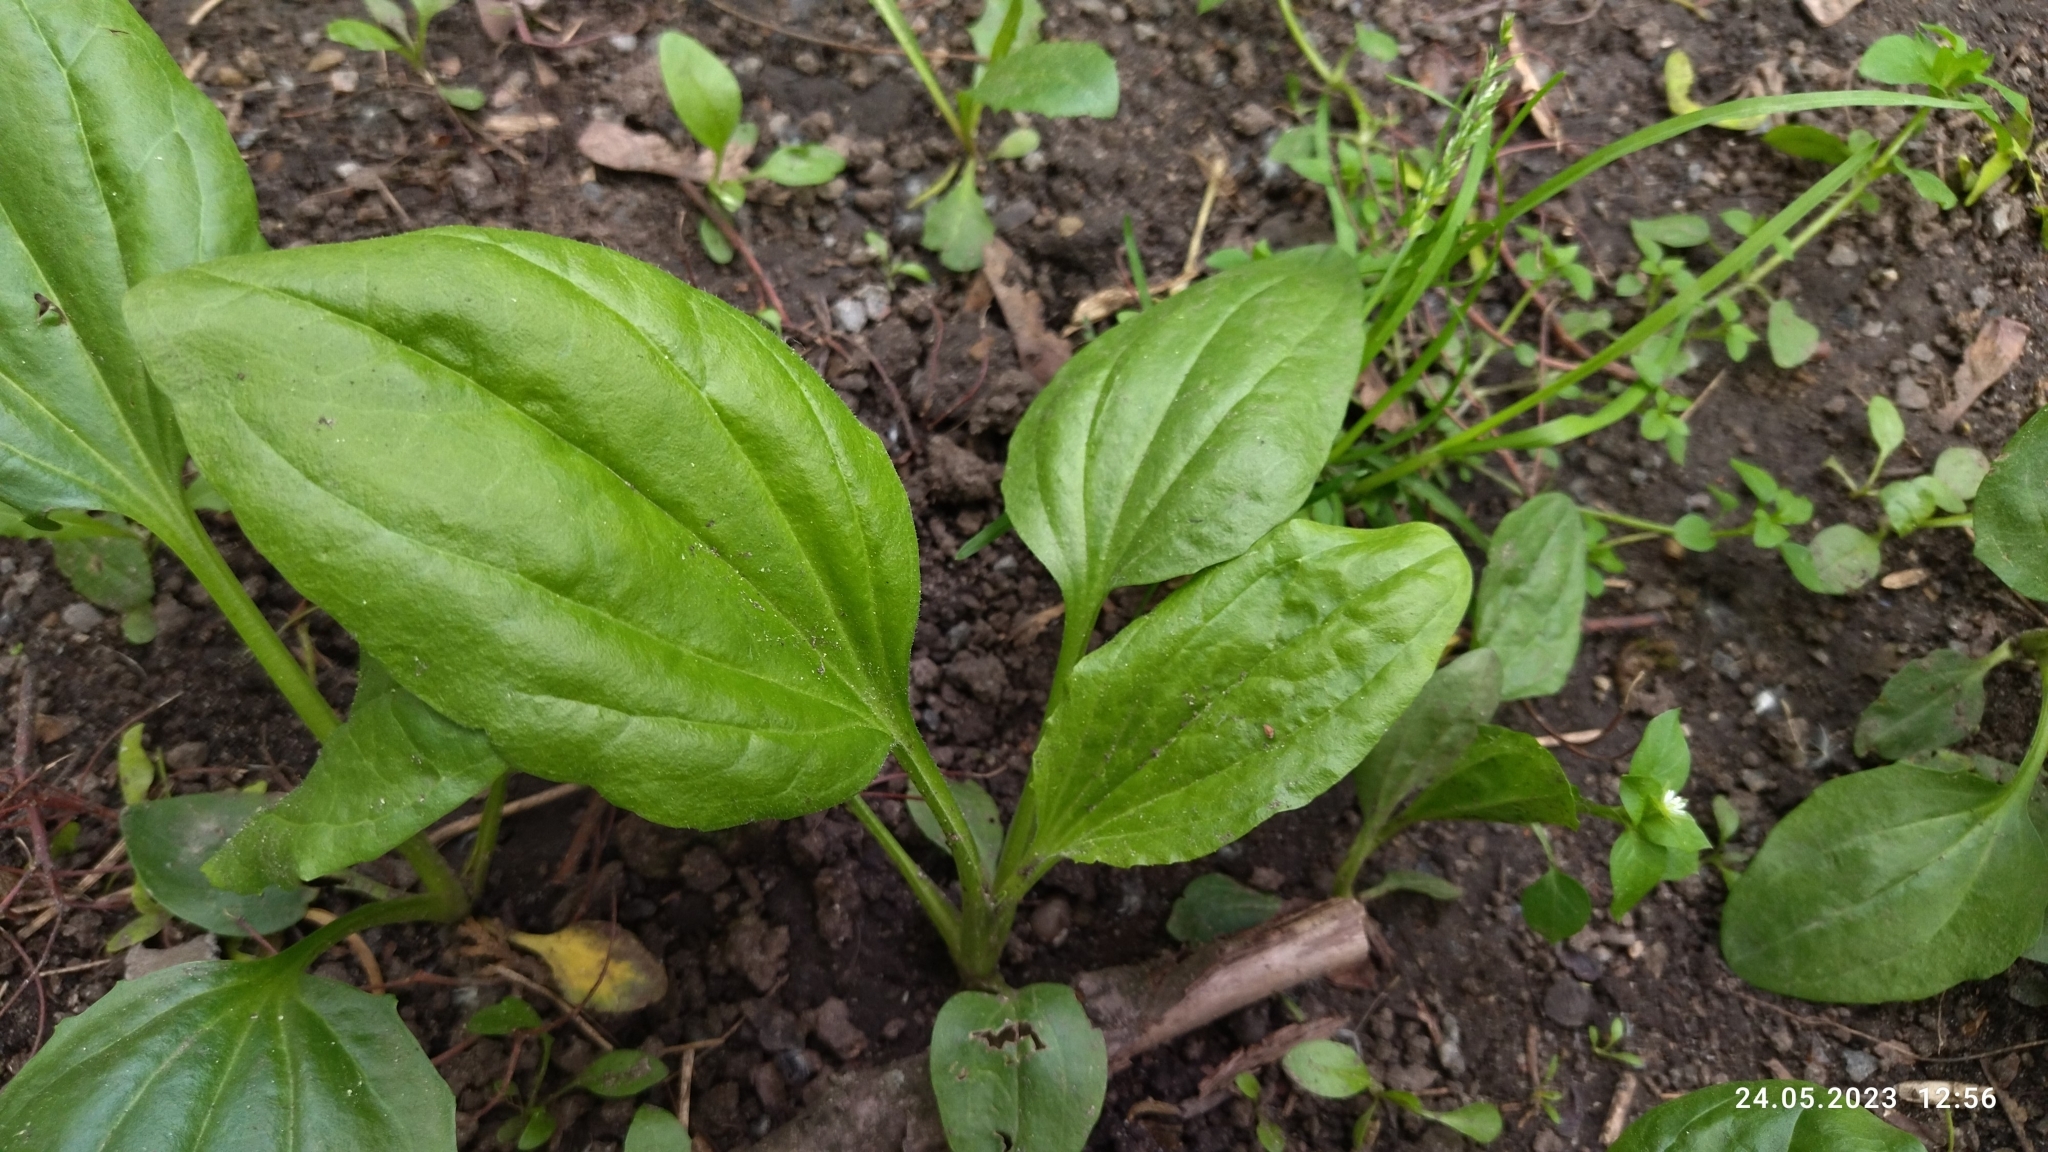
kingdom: Plantae
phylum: Tracheophyta
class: Magnoliopsida
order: Lamiales
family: Plantaginaceae
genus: Plantago
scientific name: Plantago major
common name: Common plantain
